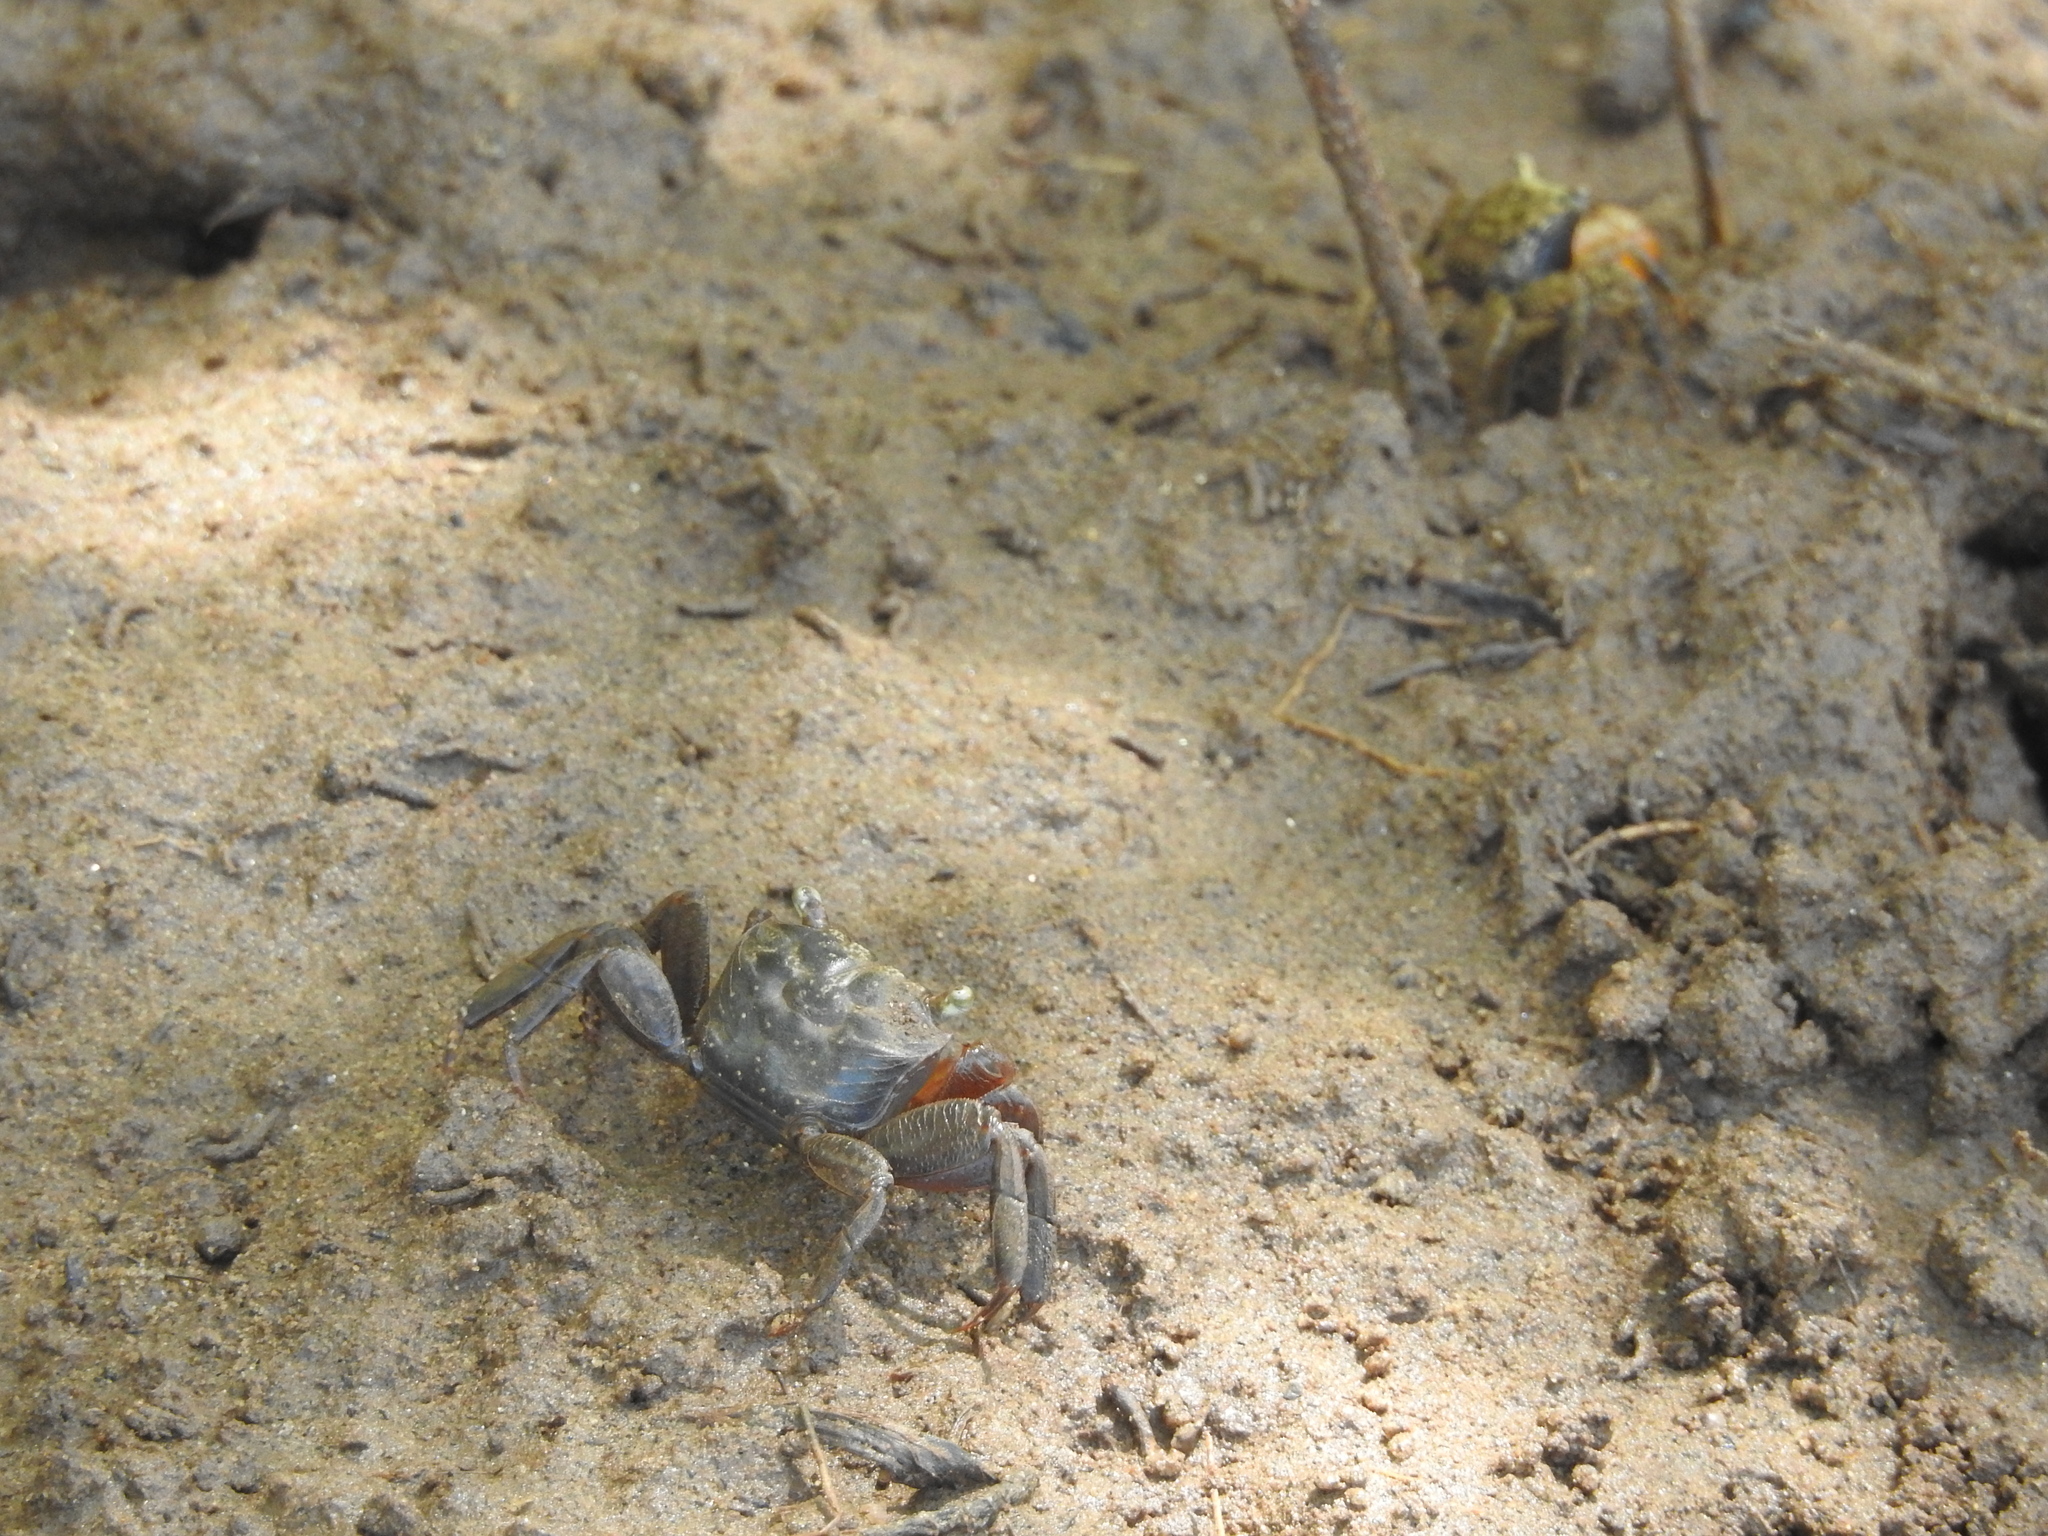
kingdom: Animalia
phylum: Arthropoda
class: Malacostraca
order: Decapoda
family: Sesarmidae
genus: Cristarma
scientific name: Cristarma eulimene
